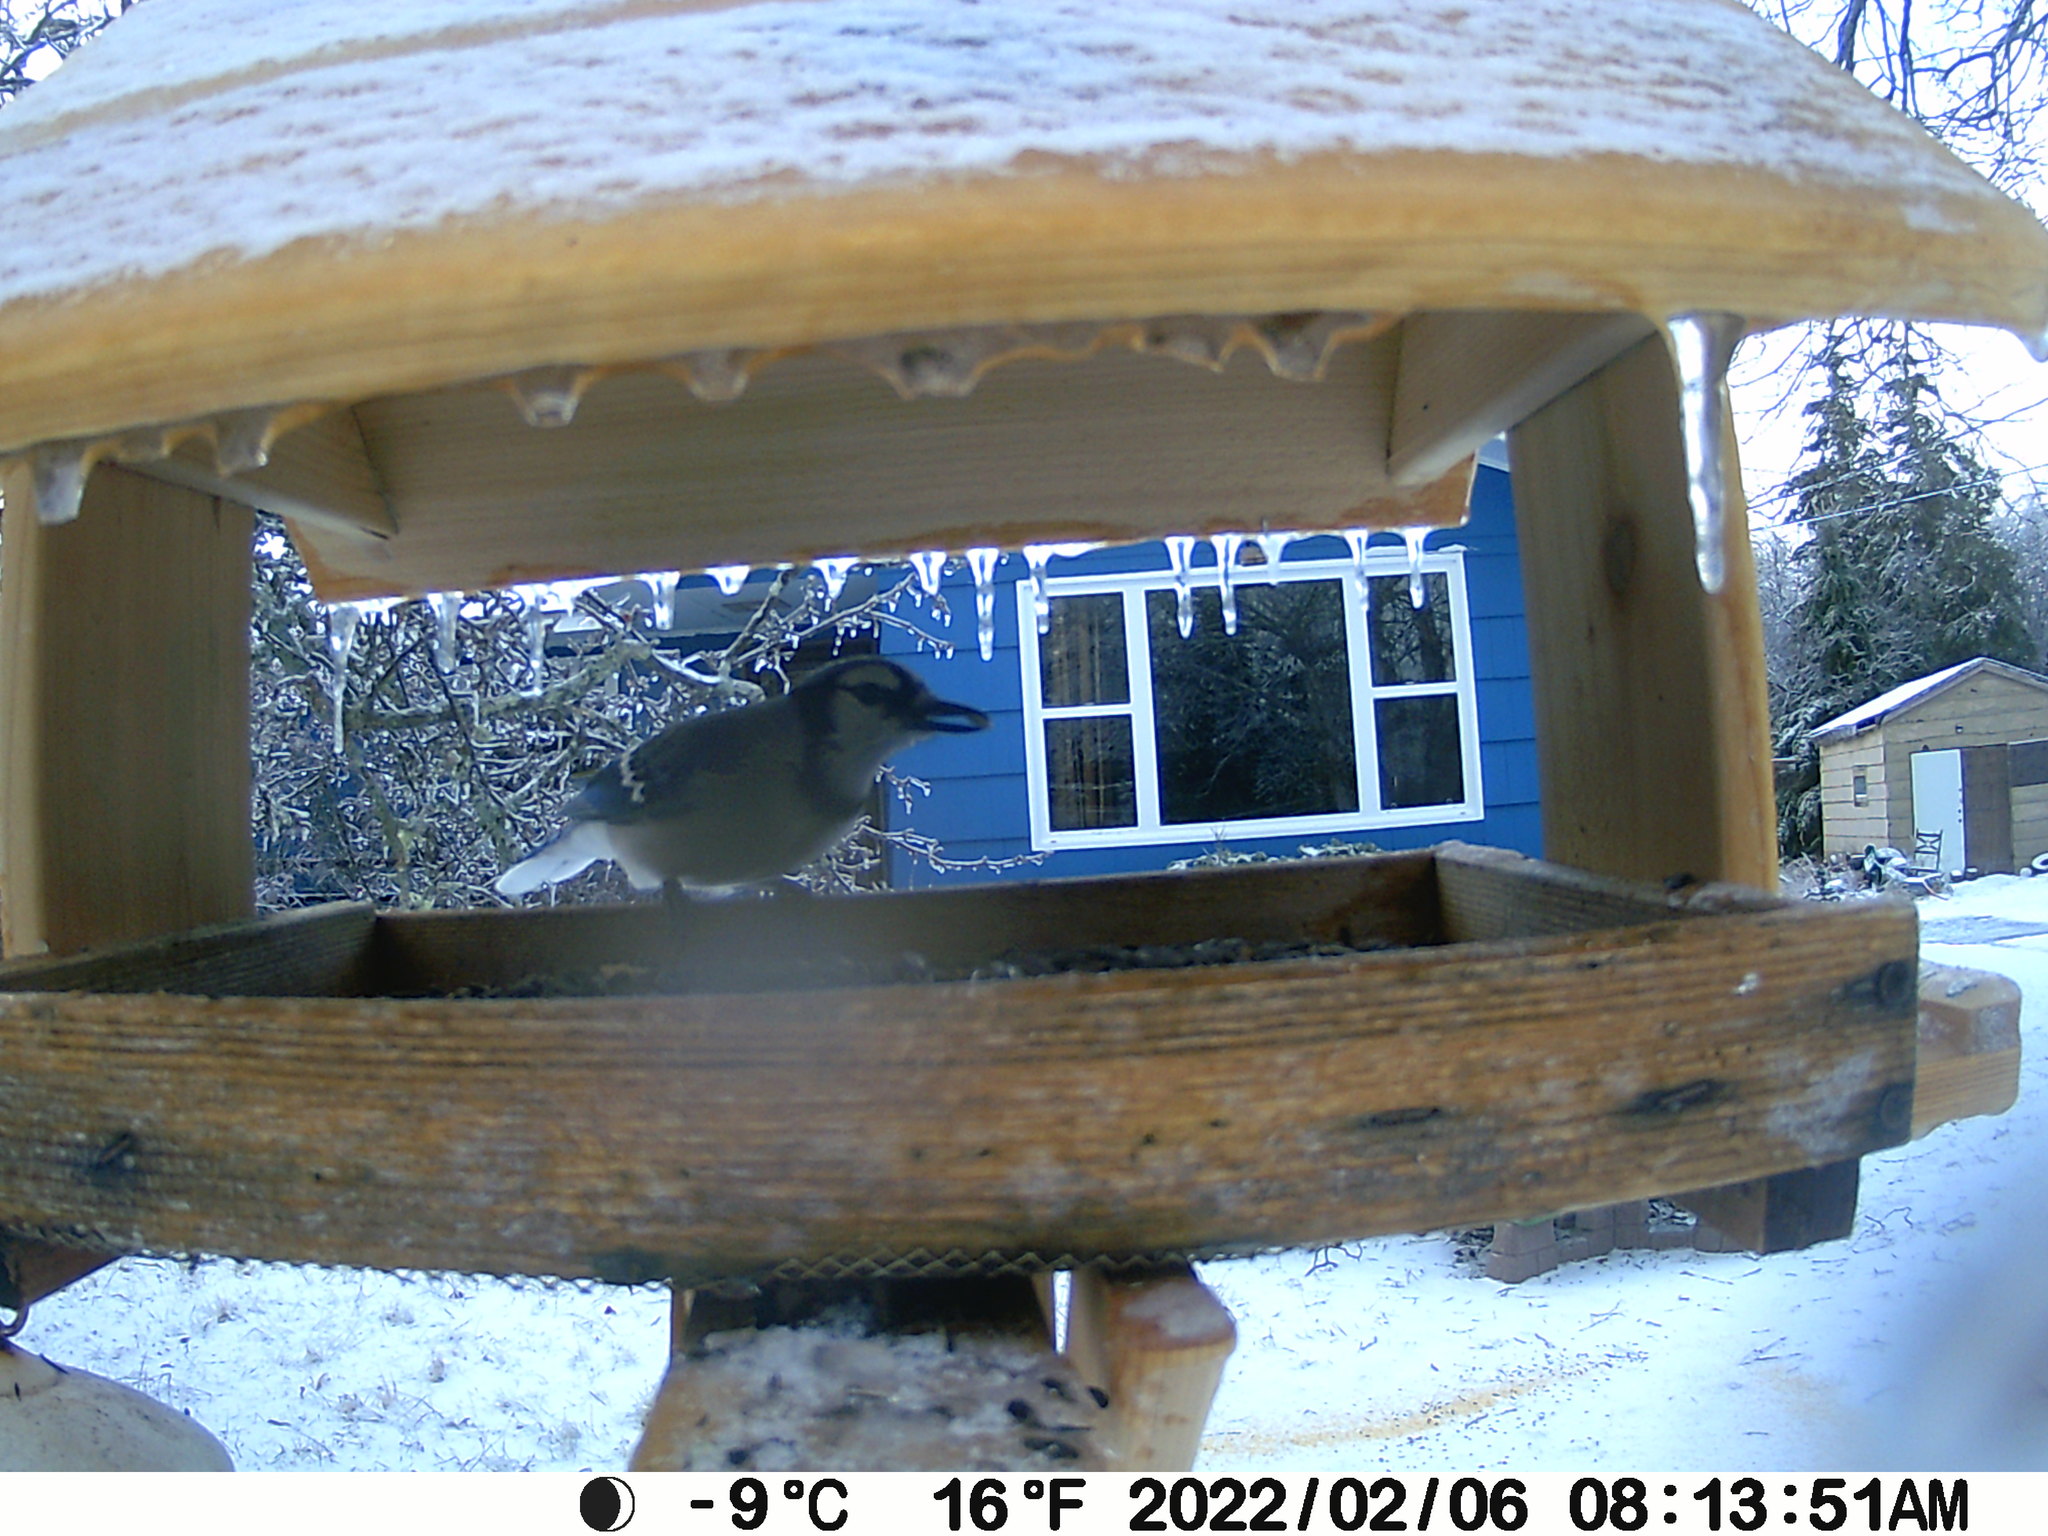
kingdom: Animalia
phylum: Chordata
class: Aves
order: Passeriformes
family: Corvidae
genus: Cyanocitta
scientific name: Cyanocitta cristata
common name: Blue jay
